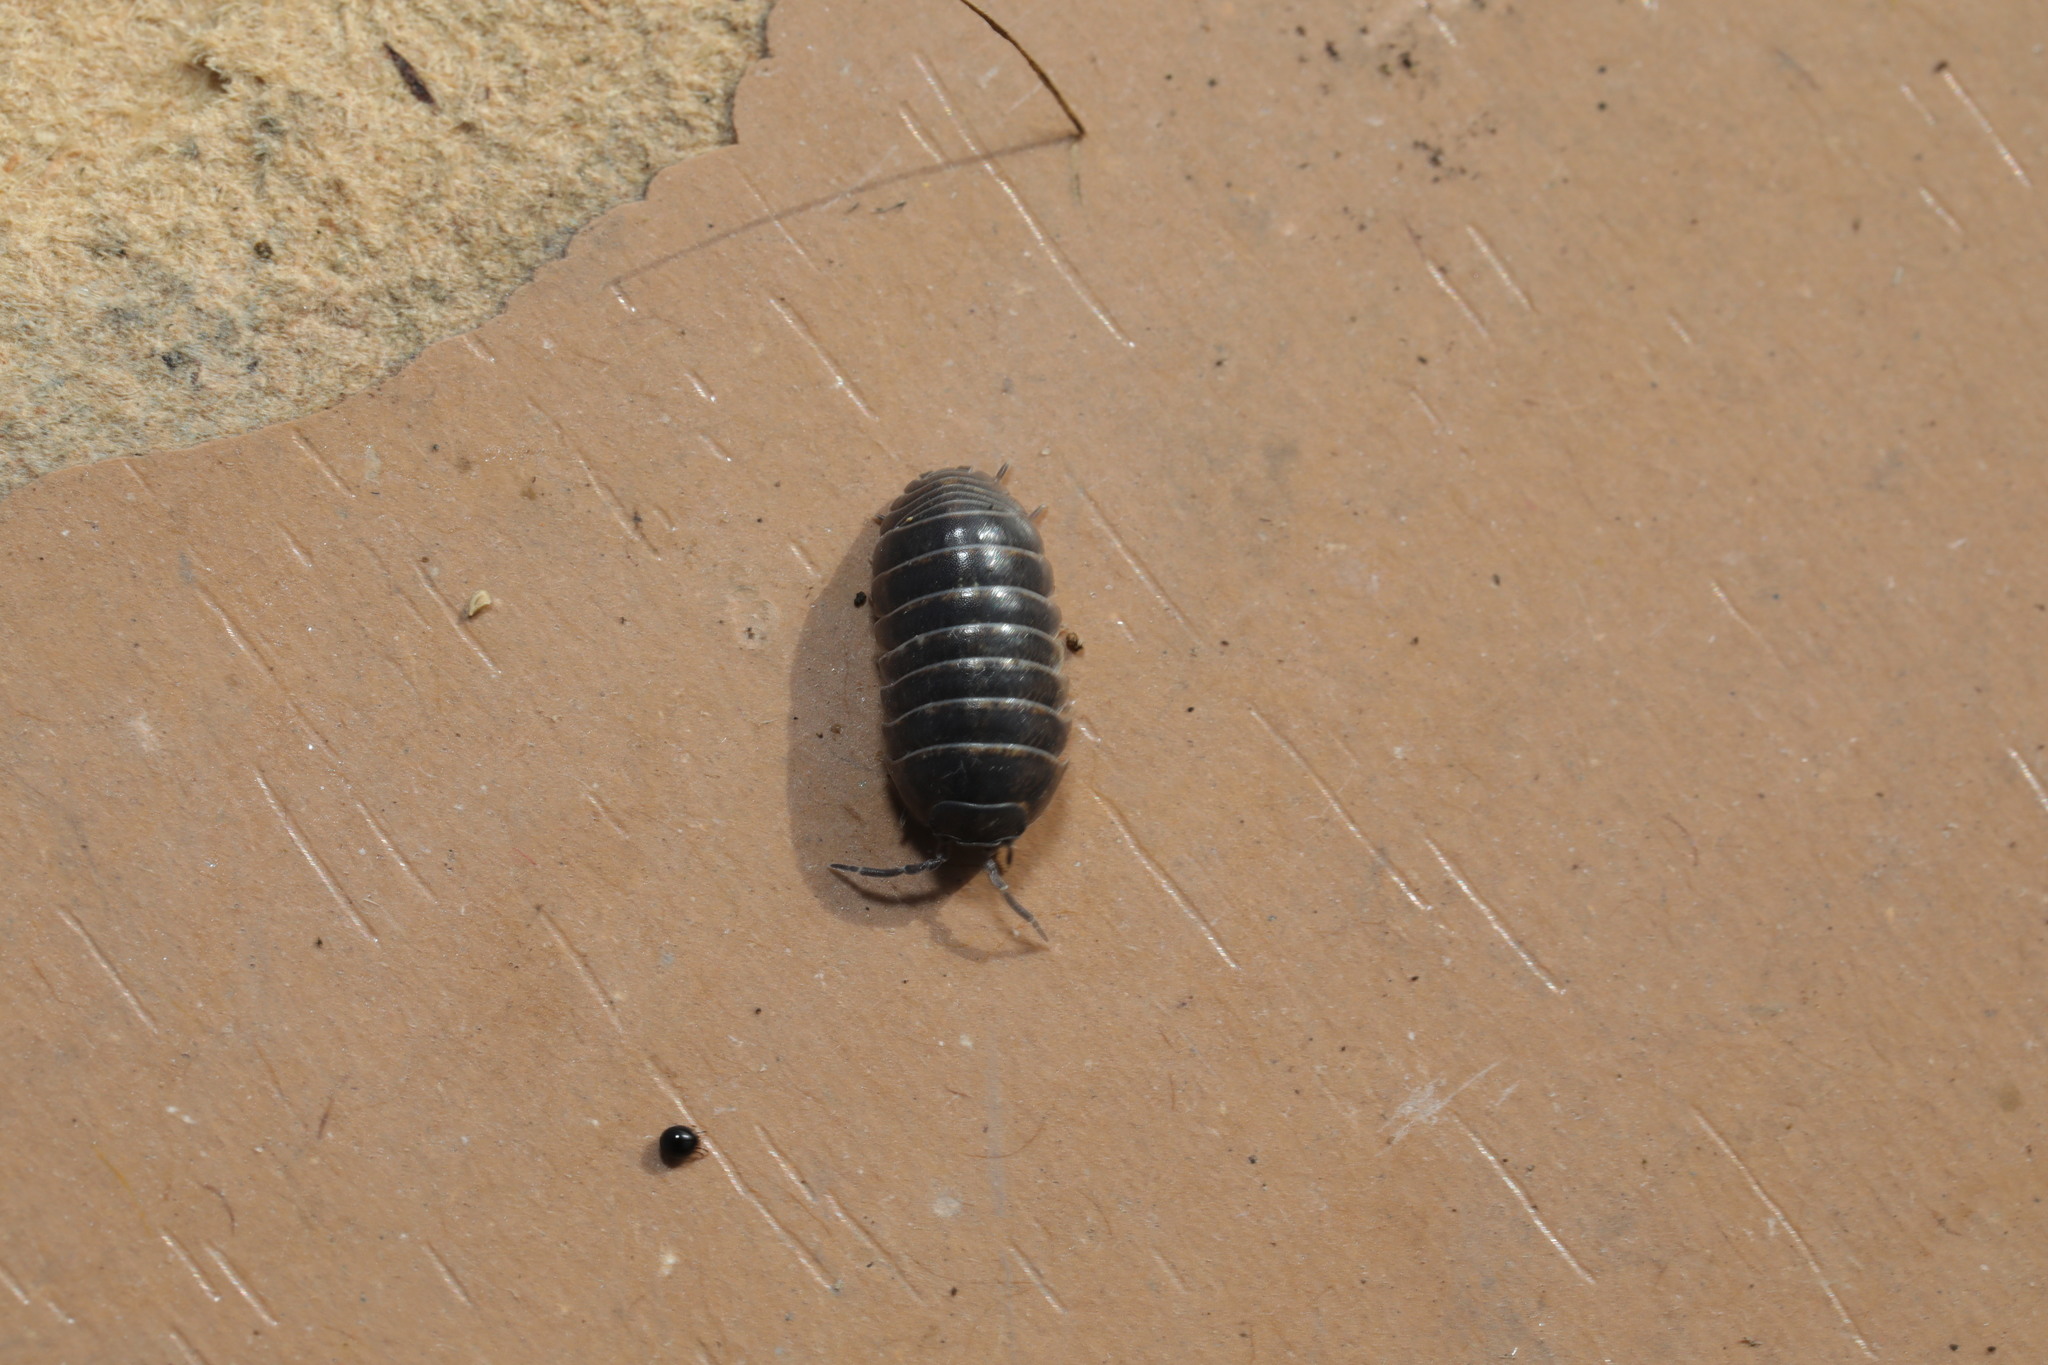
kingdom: Animalia
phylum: Arthropoda
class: Malacostraca
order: Isopoda
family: Armadillidiidae
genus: Armadillidium
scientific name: Armadillidium vulgare
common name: Common pill woodlouse
